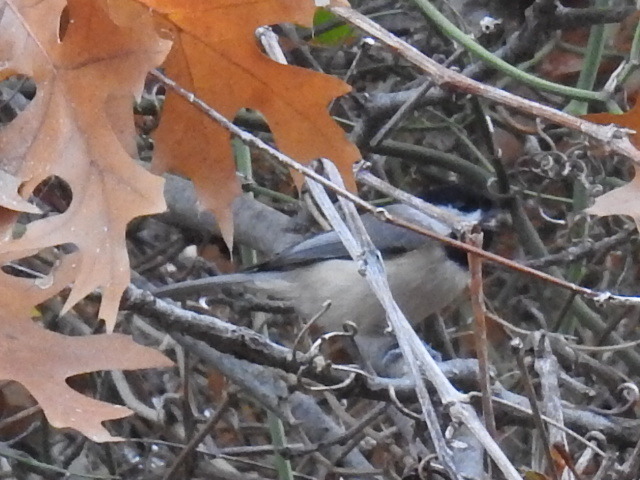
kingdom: Animalia
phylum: Chordata
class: Aves
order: Passeriformes
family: Paridae
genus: Poecile
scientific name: Poecile carolinensis
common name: Carolina chickadee
